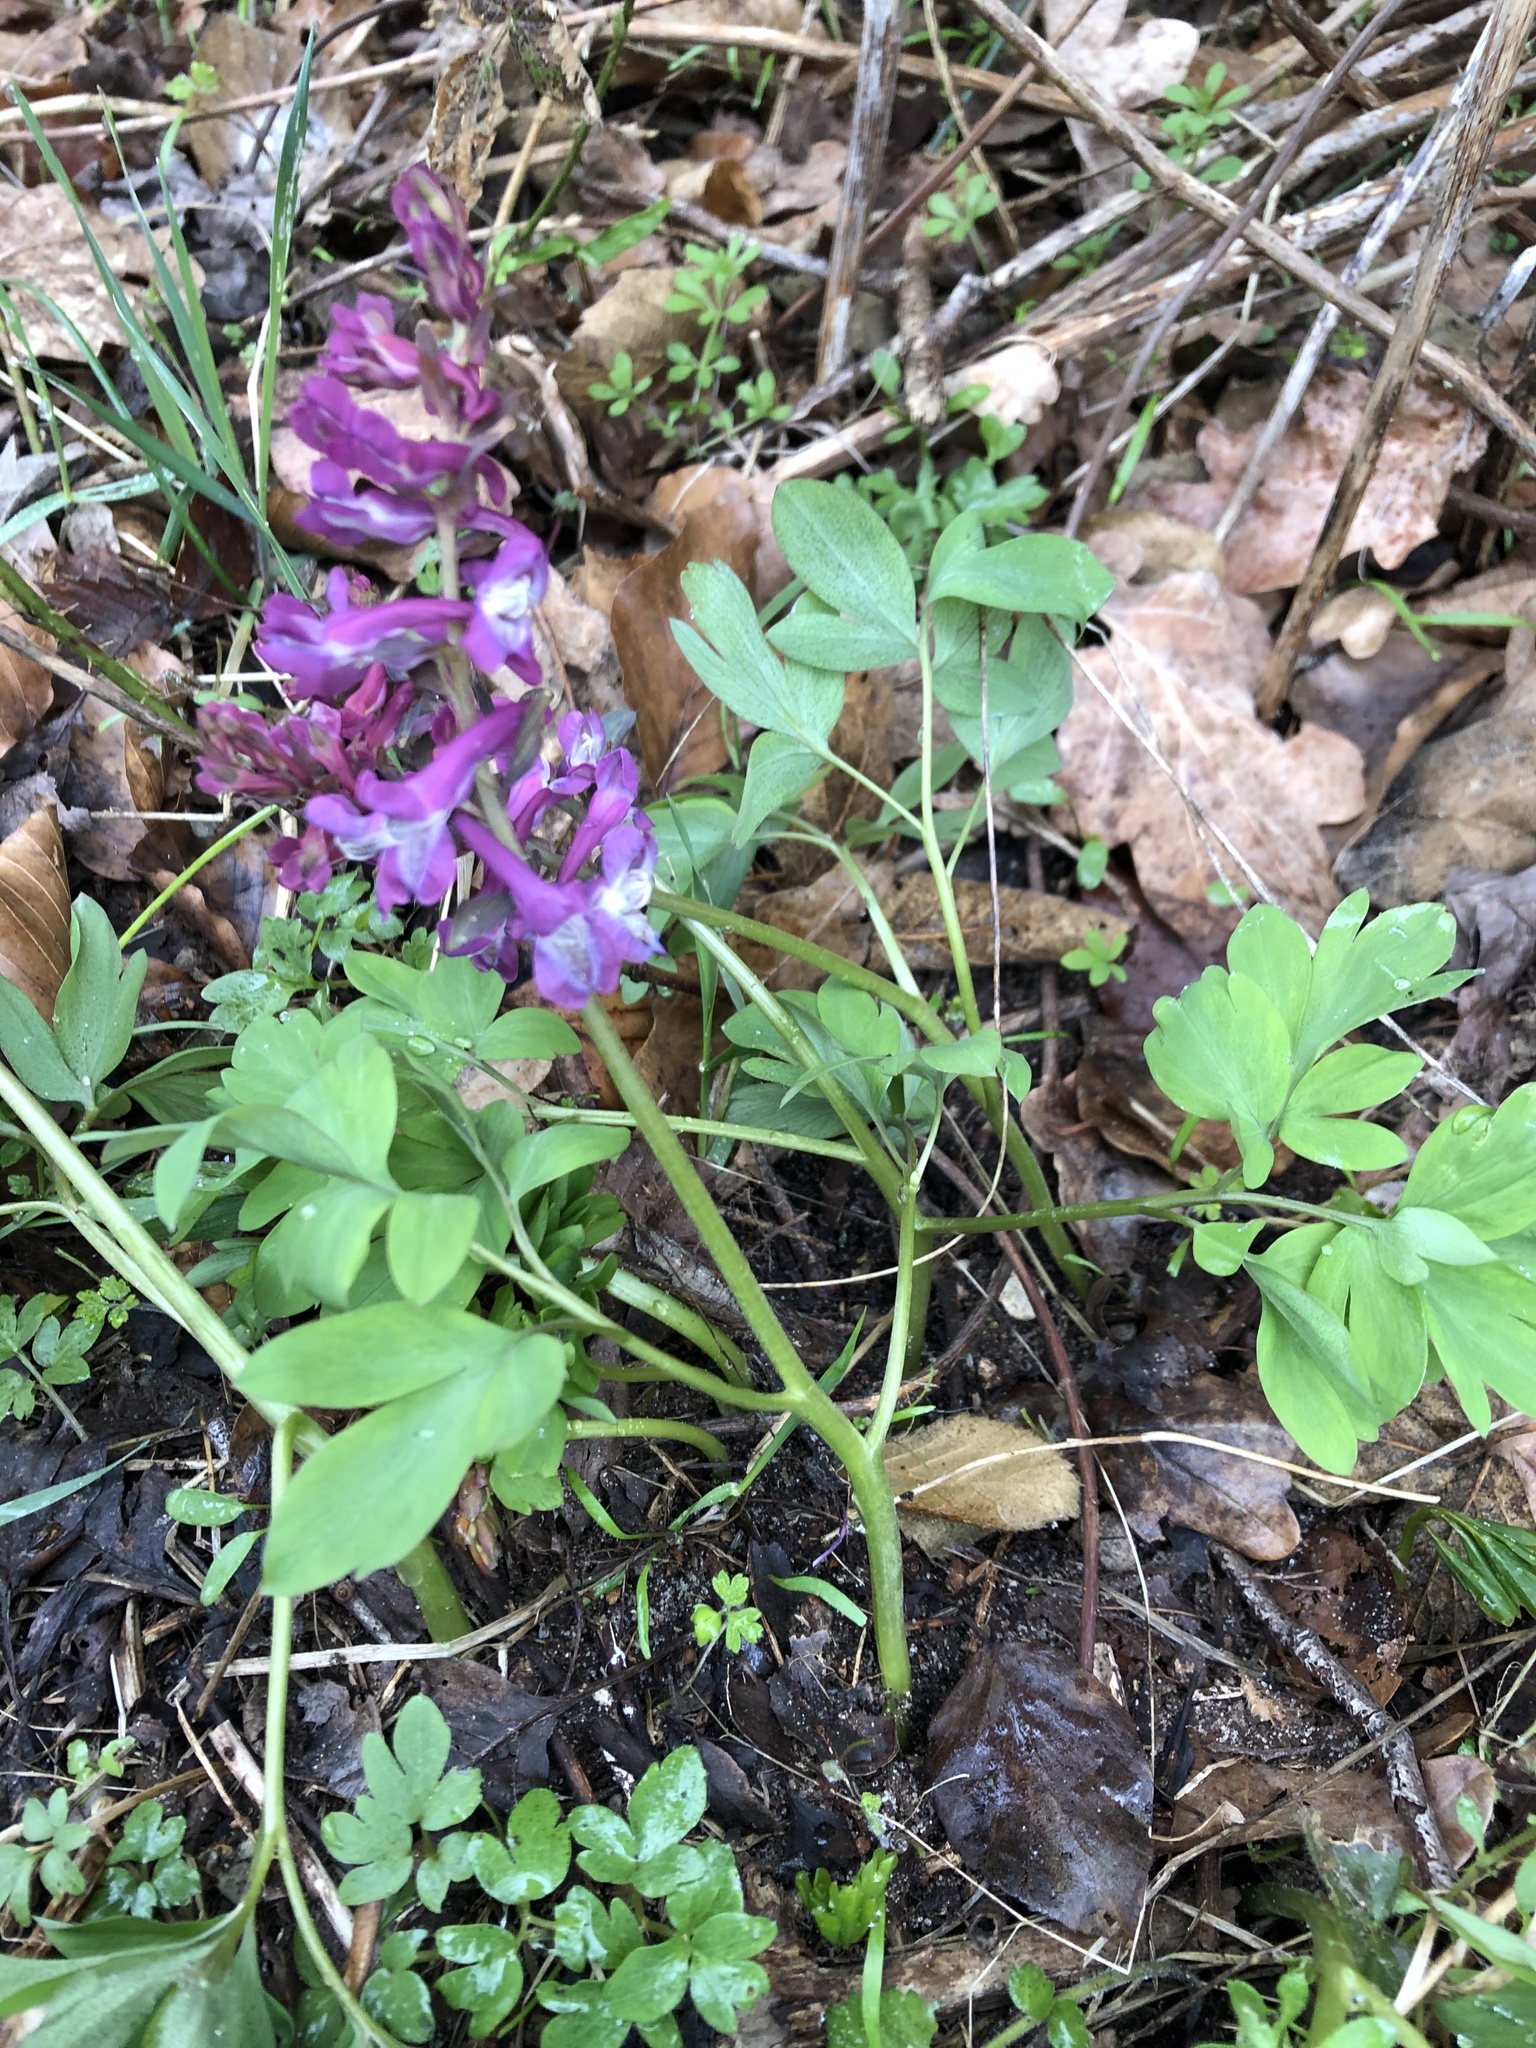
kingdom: Plantae
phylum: Tracheophyta
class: Magnoliopsida
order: Ranunculales
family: Papaveraceae
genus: Corydalis
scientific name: Corydalis cava
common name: Hollowroot
